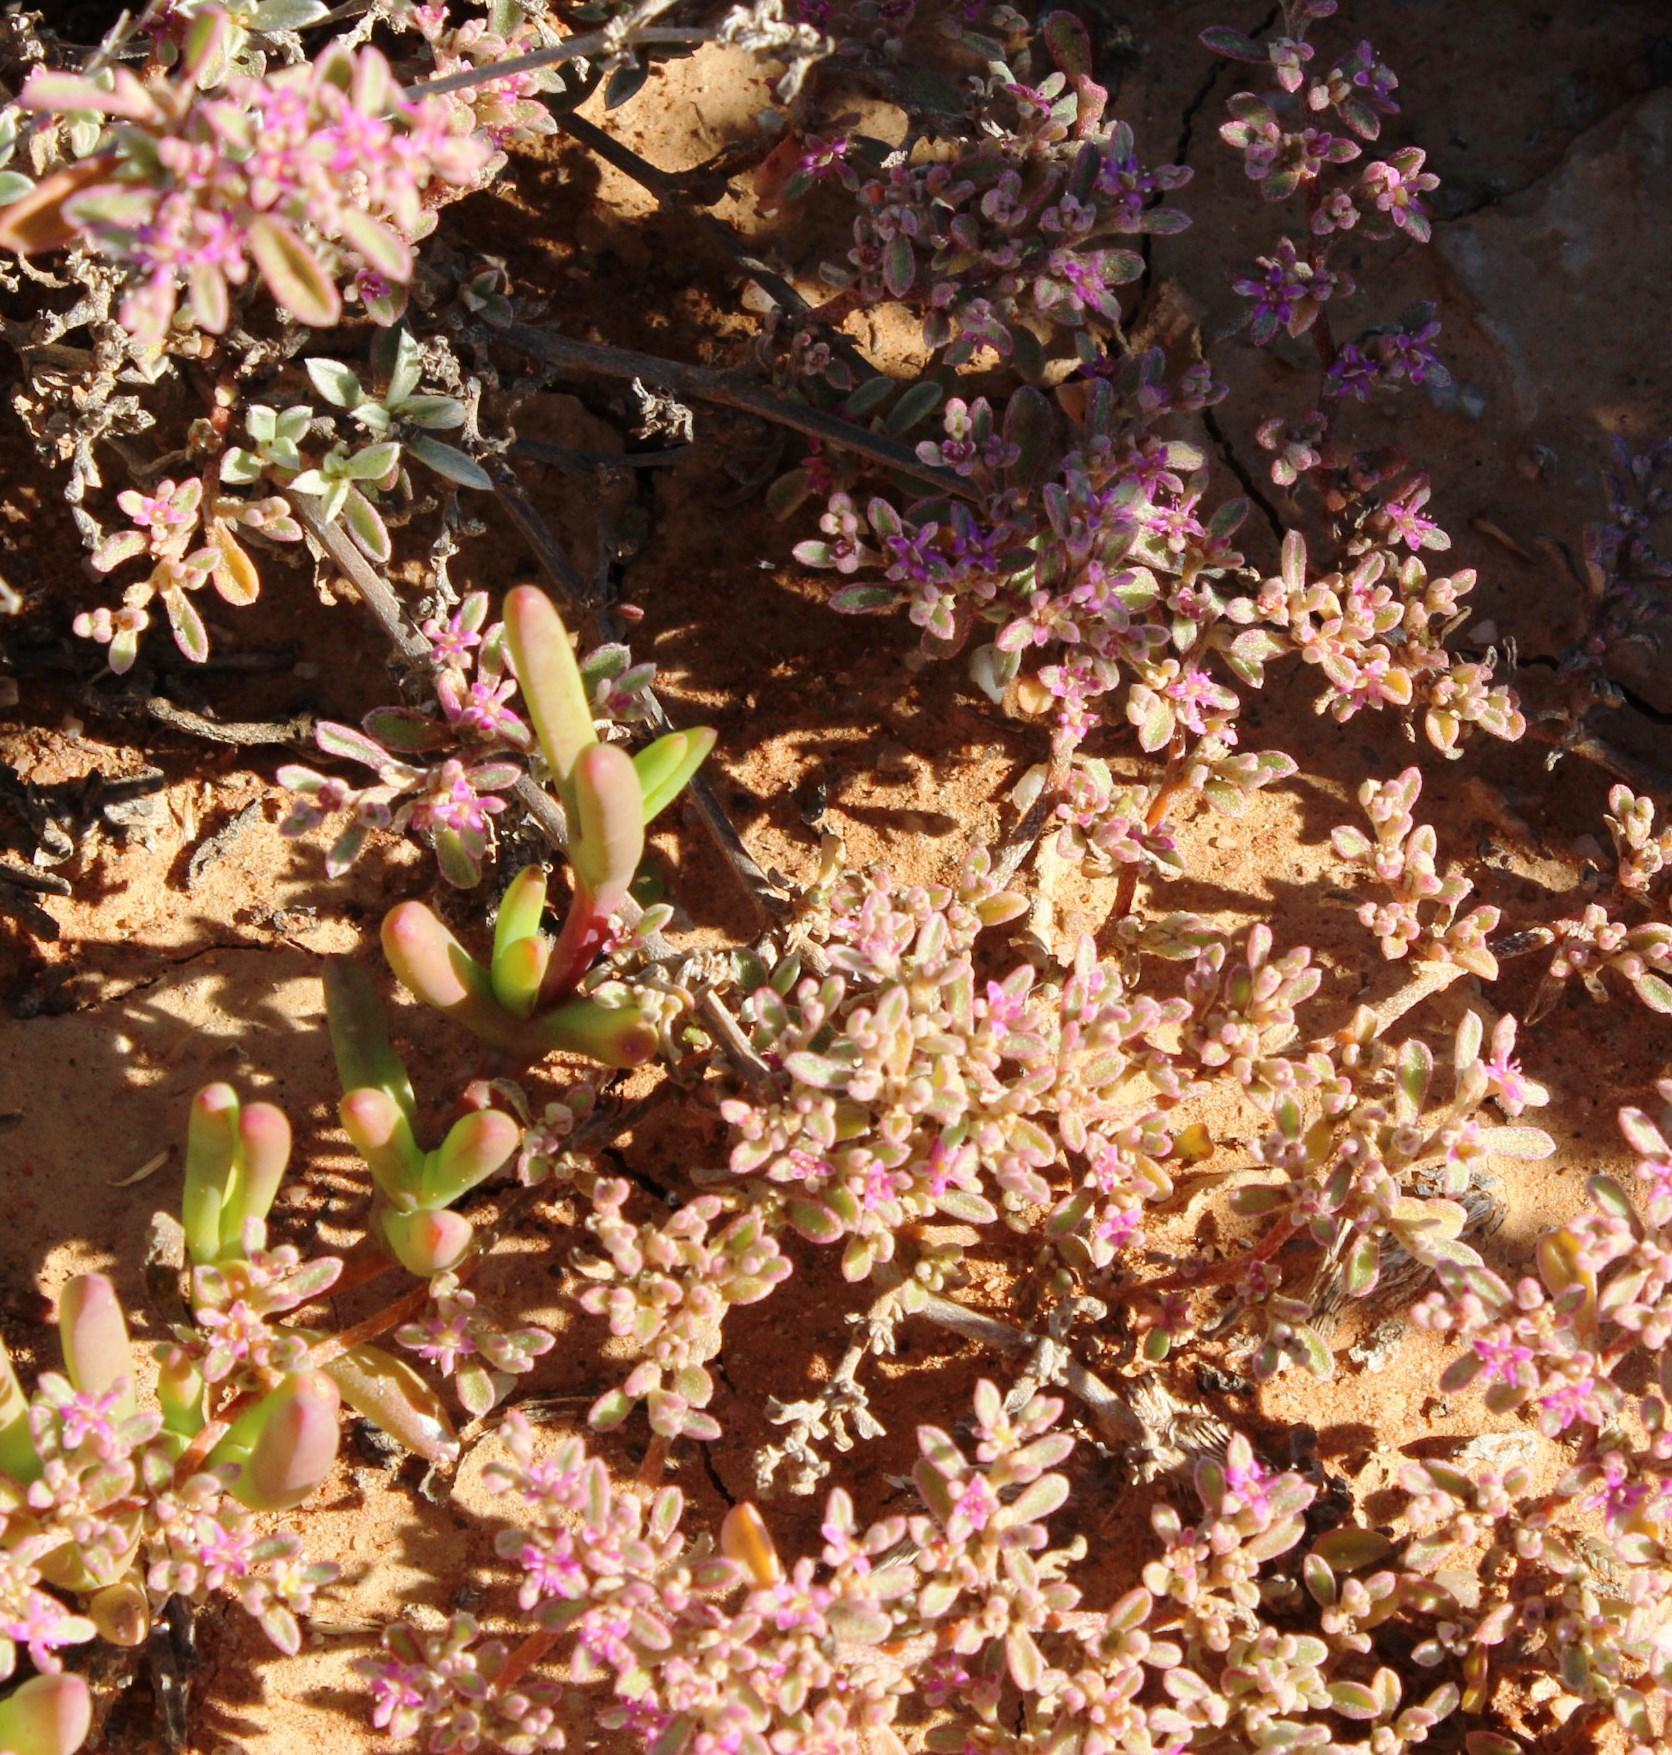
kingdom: Plantae
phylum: Tracheophyta
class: Magnoliopsida
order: Caryophyllales
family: Aizoaceae
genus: Aizoon
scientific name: Aizoon sarcophyllum
